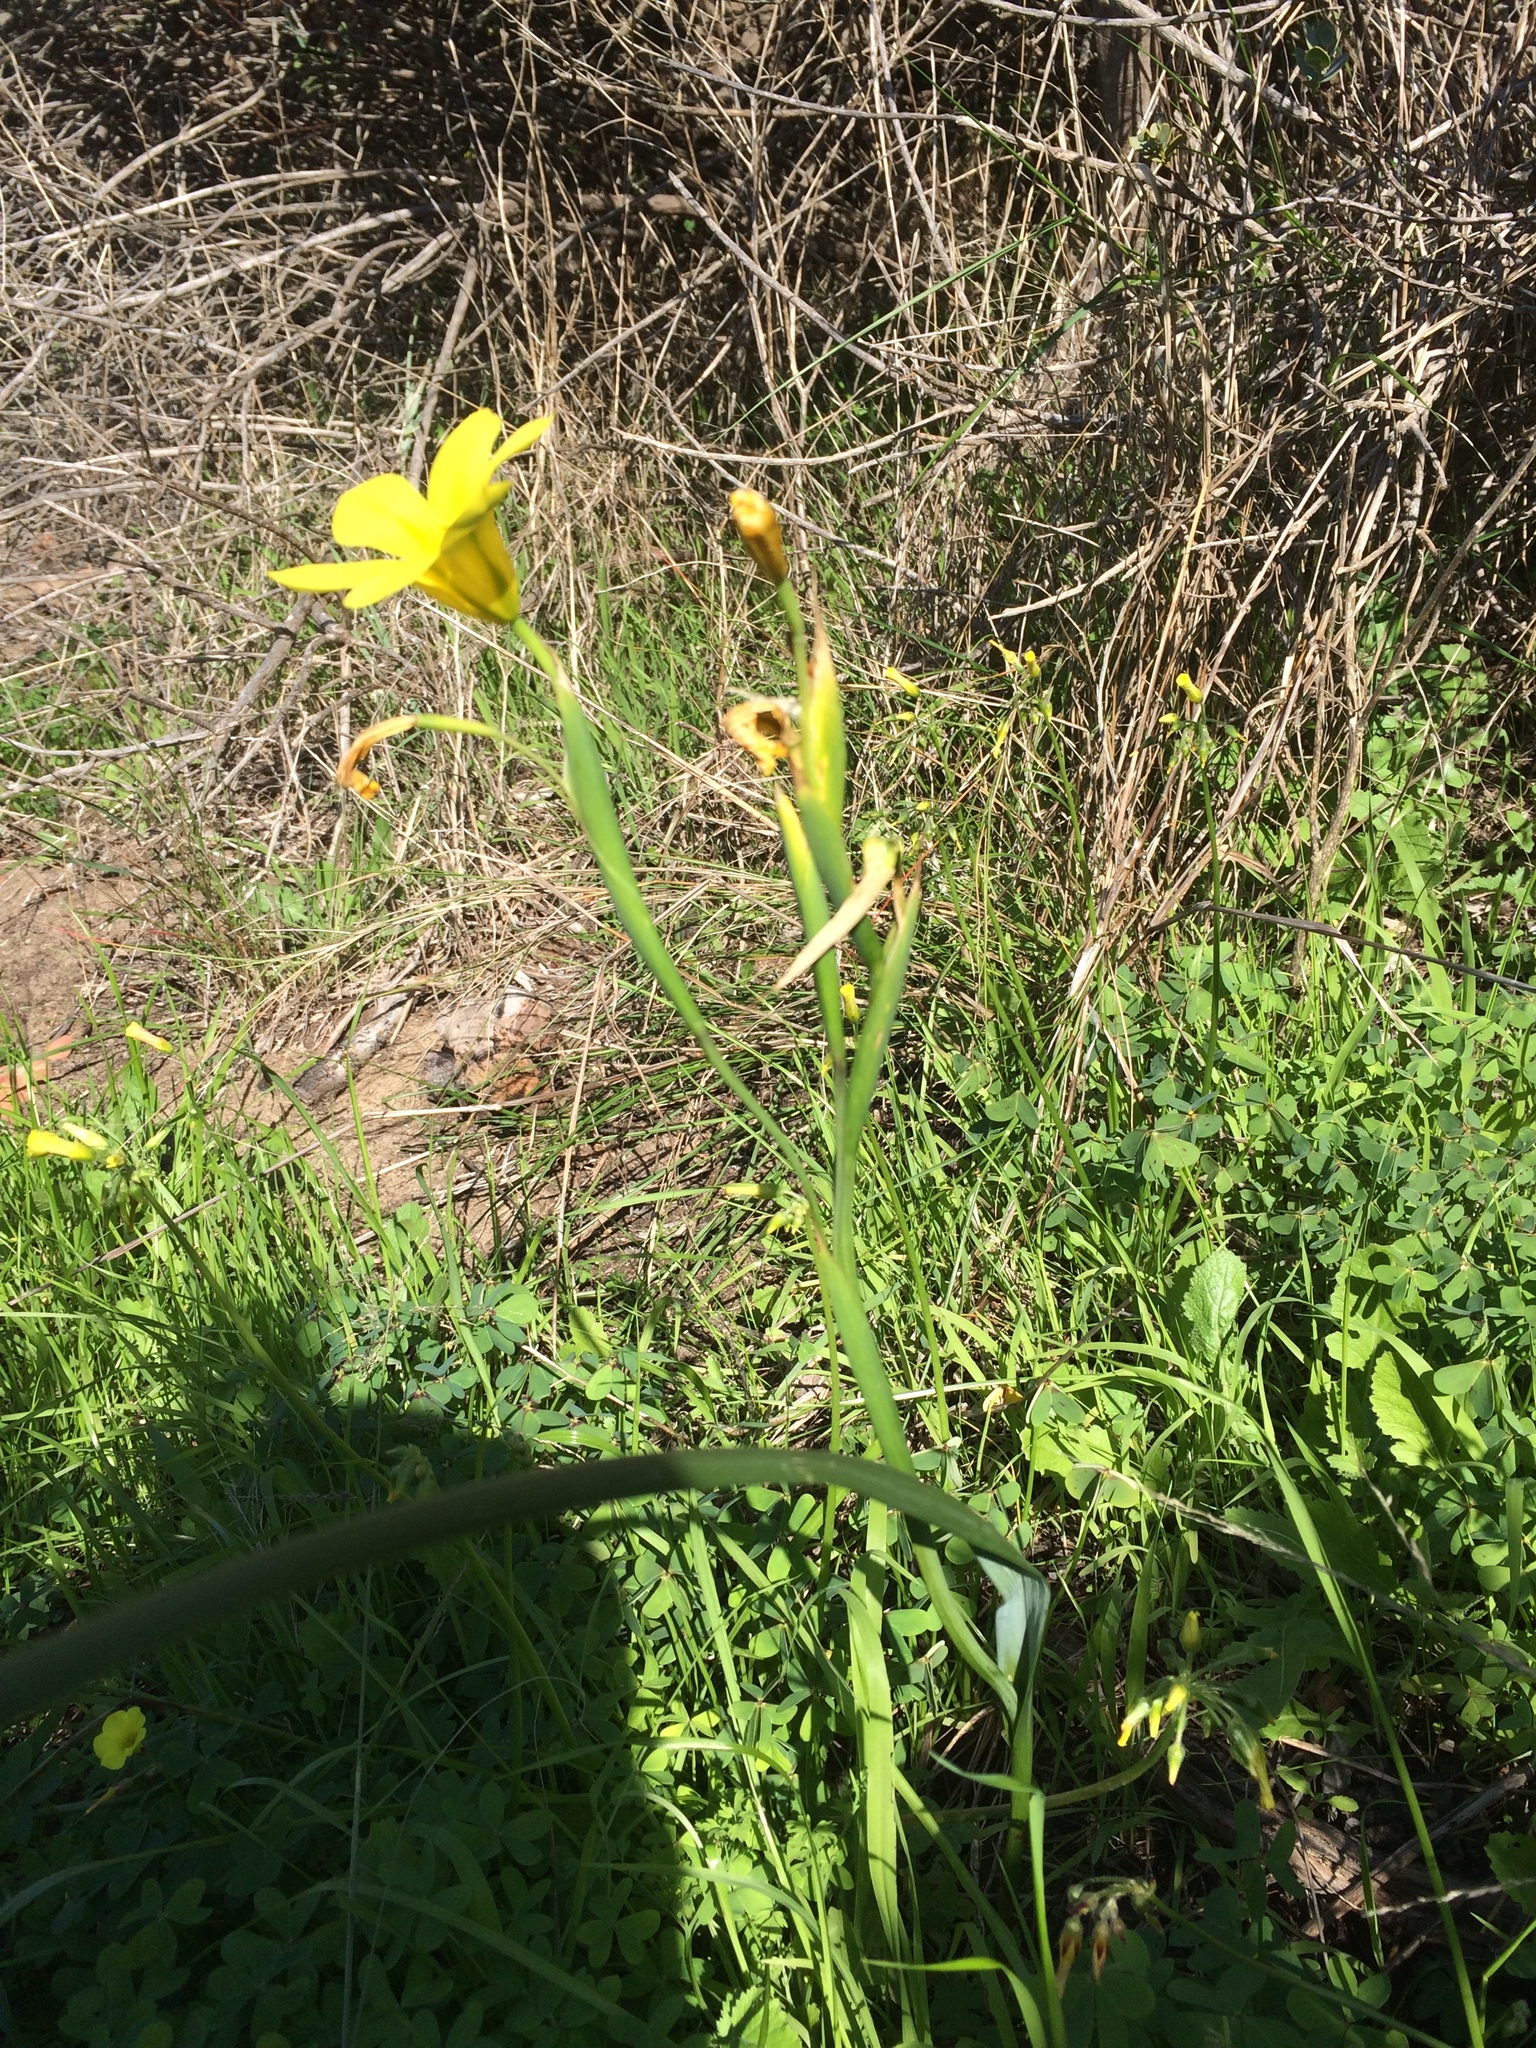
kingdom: Plantae
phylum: Tracheophyta
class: Liliopsida
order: Asparagales
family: Iridaceae
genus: Moraea
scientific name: Moraea ochroleuca
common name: Red tulp
